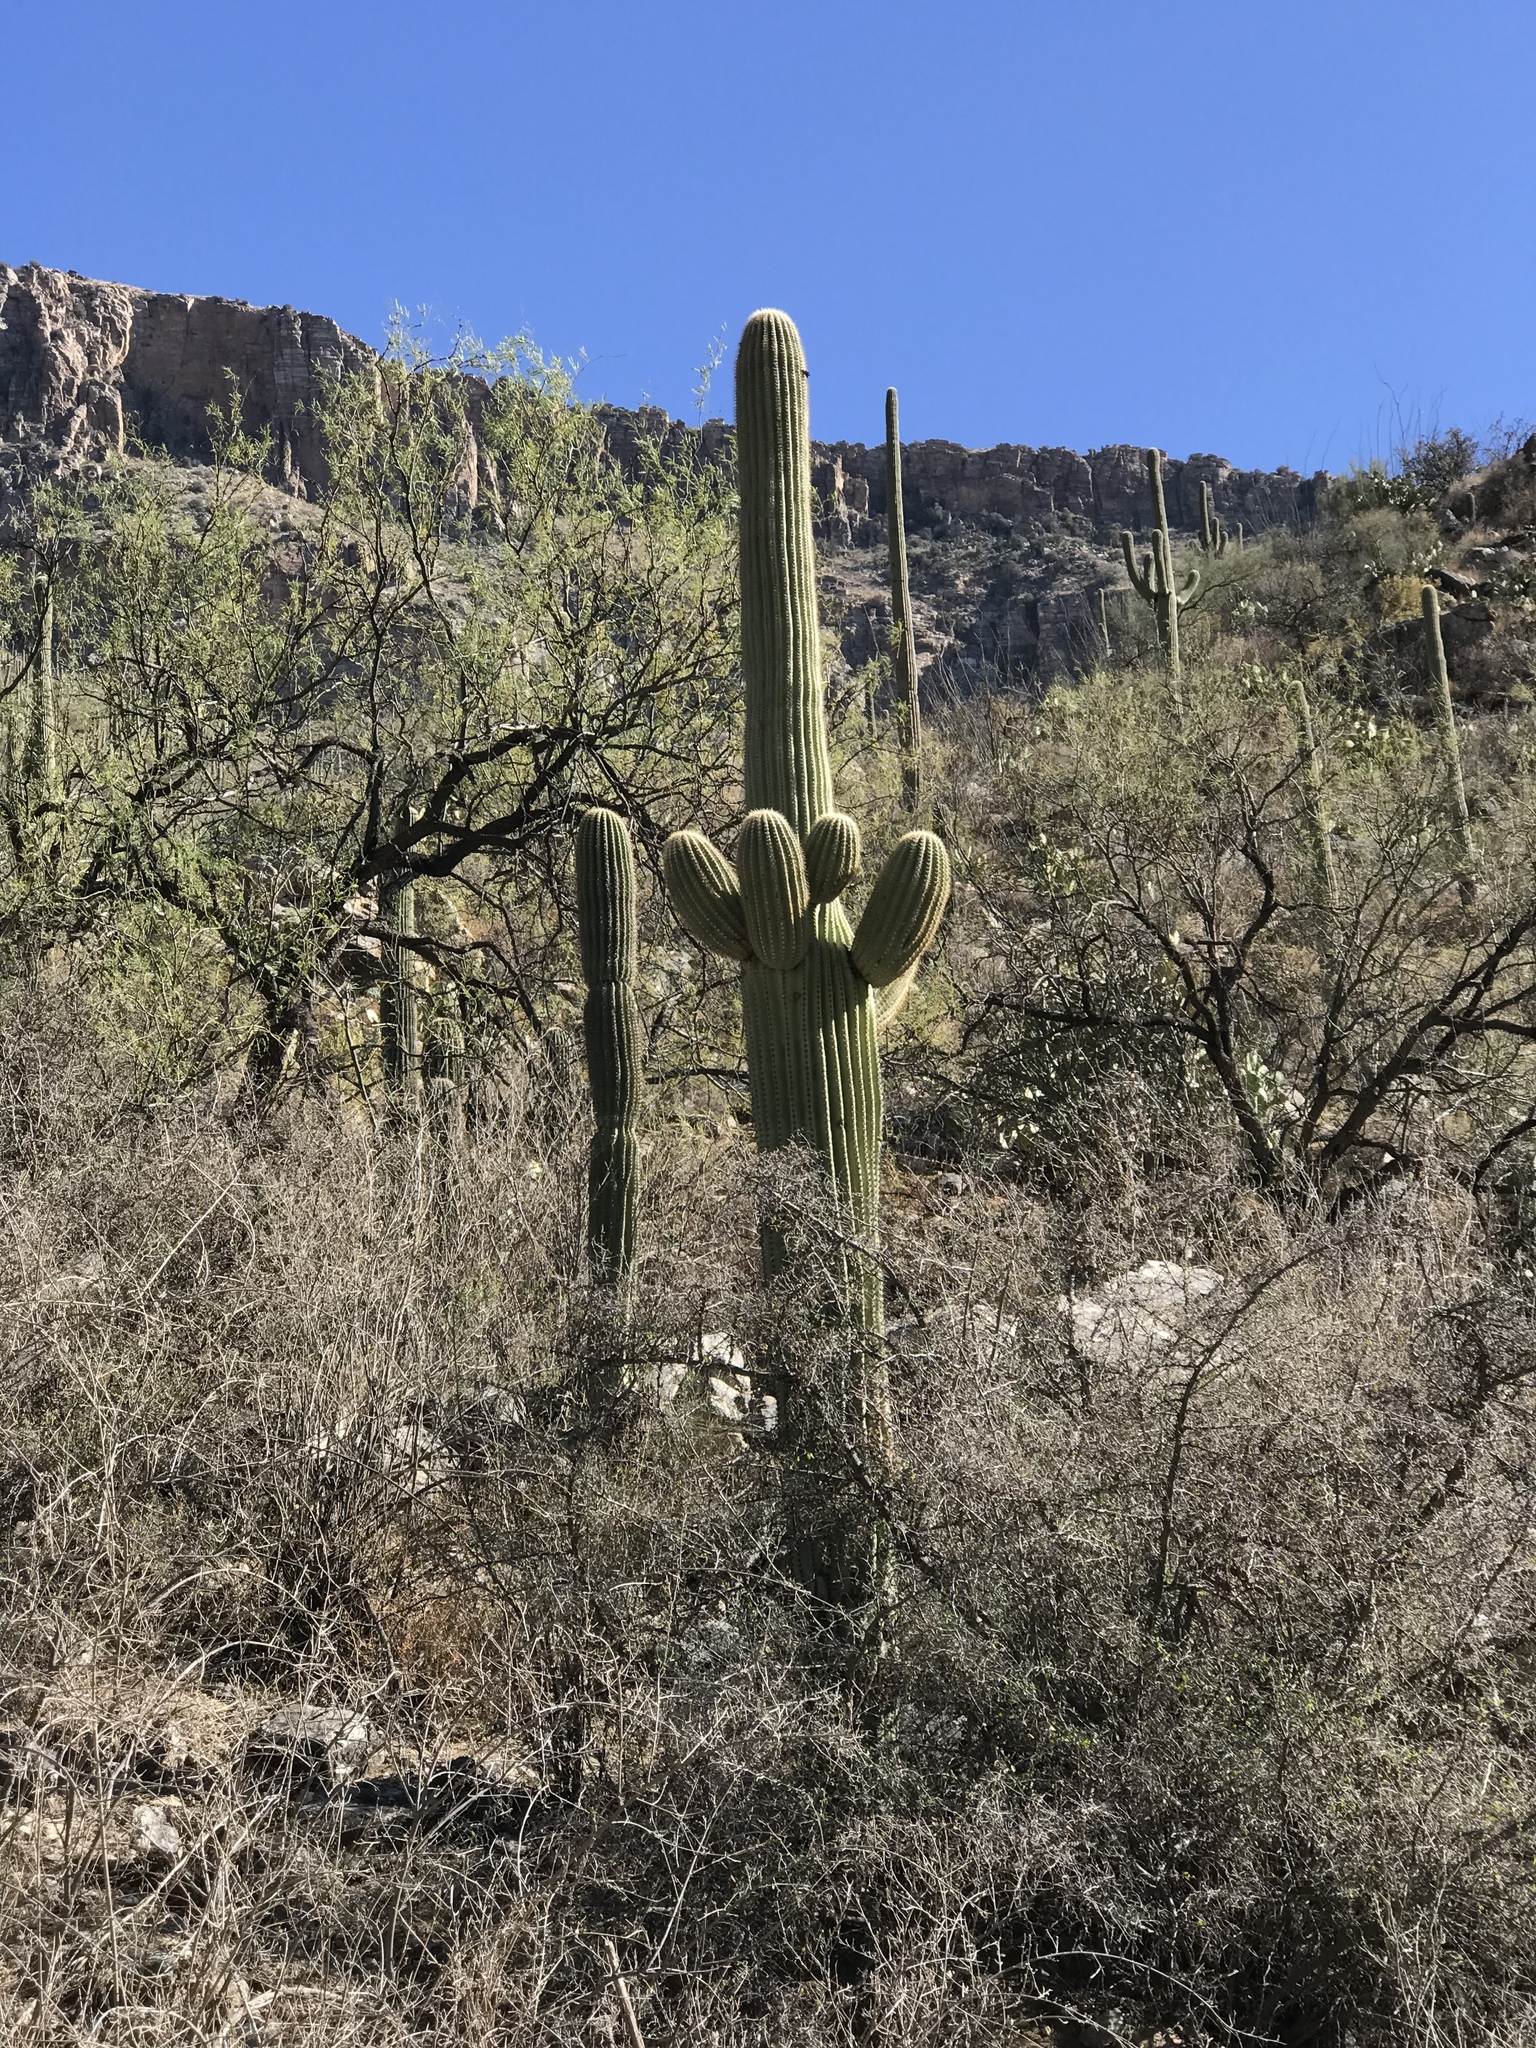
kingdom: Plantae
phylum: Tracheophyta
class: Magnoliopsida
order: Caryophyllales
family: Cactaceae
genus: Carnegiea
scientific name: Carnegiea gigantea
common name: Saguaro
